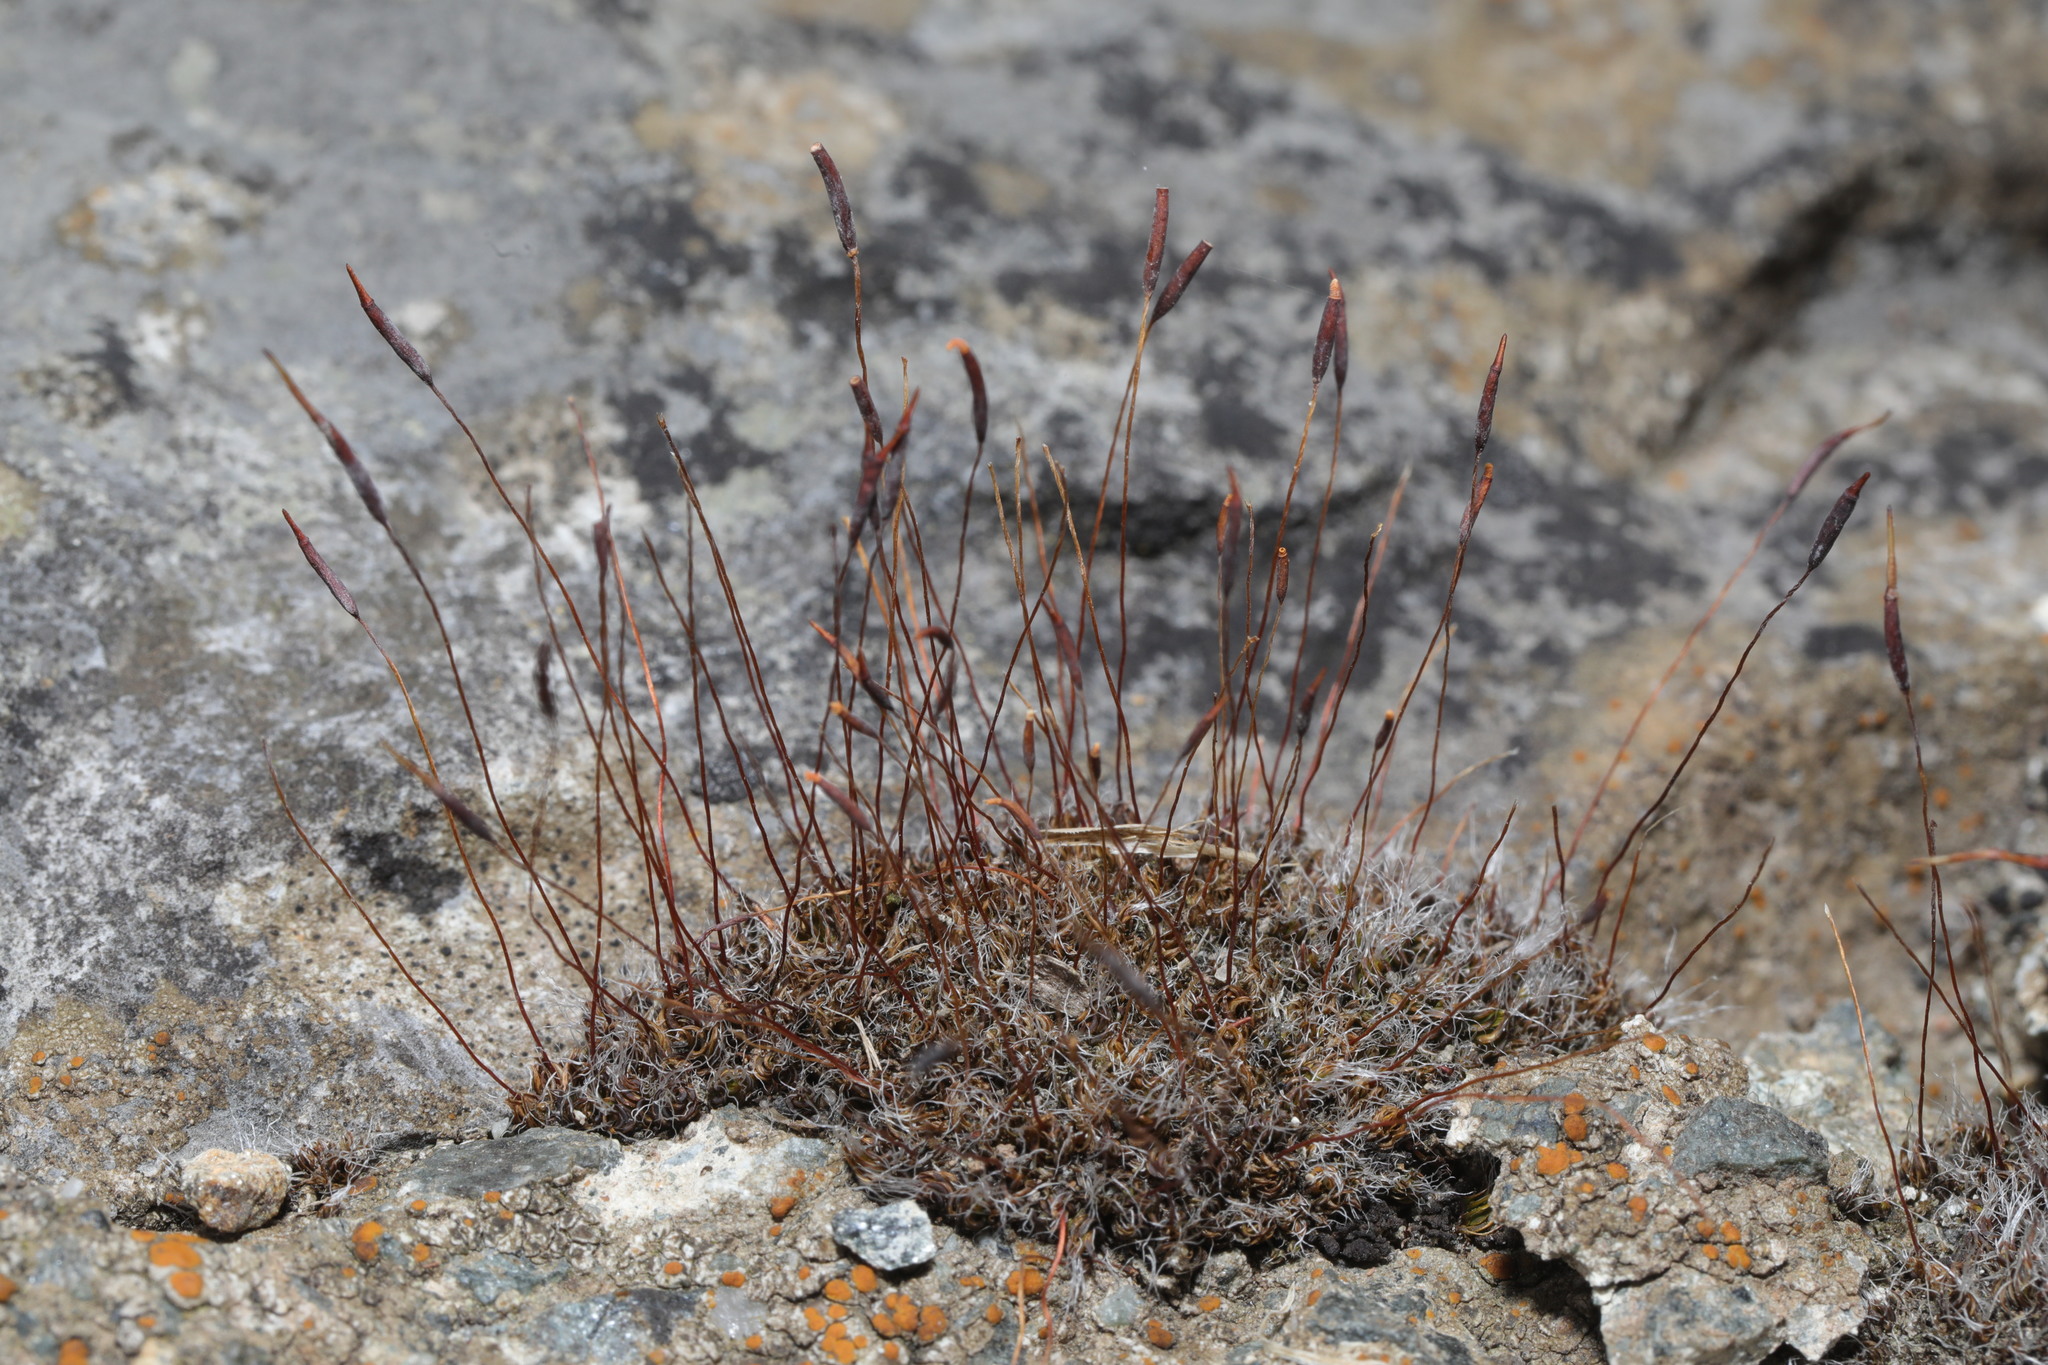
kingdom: Plantae
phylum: Bryophyta
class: Bryopsida
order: Pottiales
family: Pottiaceae
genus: Tortula
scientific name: Tortula muralis
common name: Wall screw-moss
